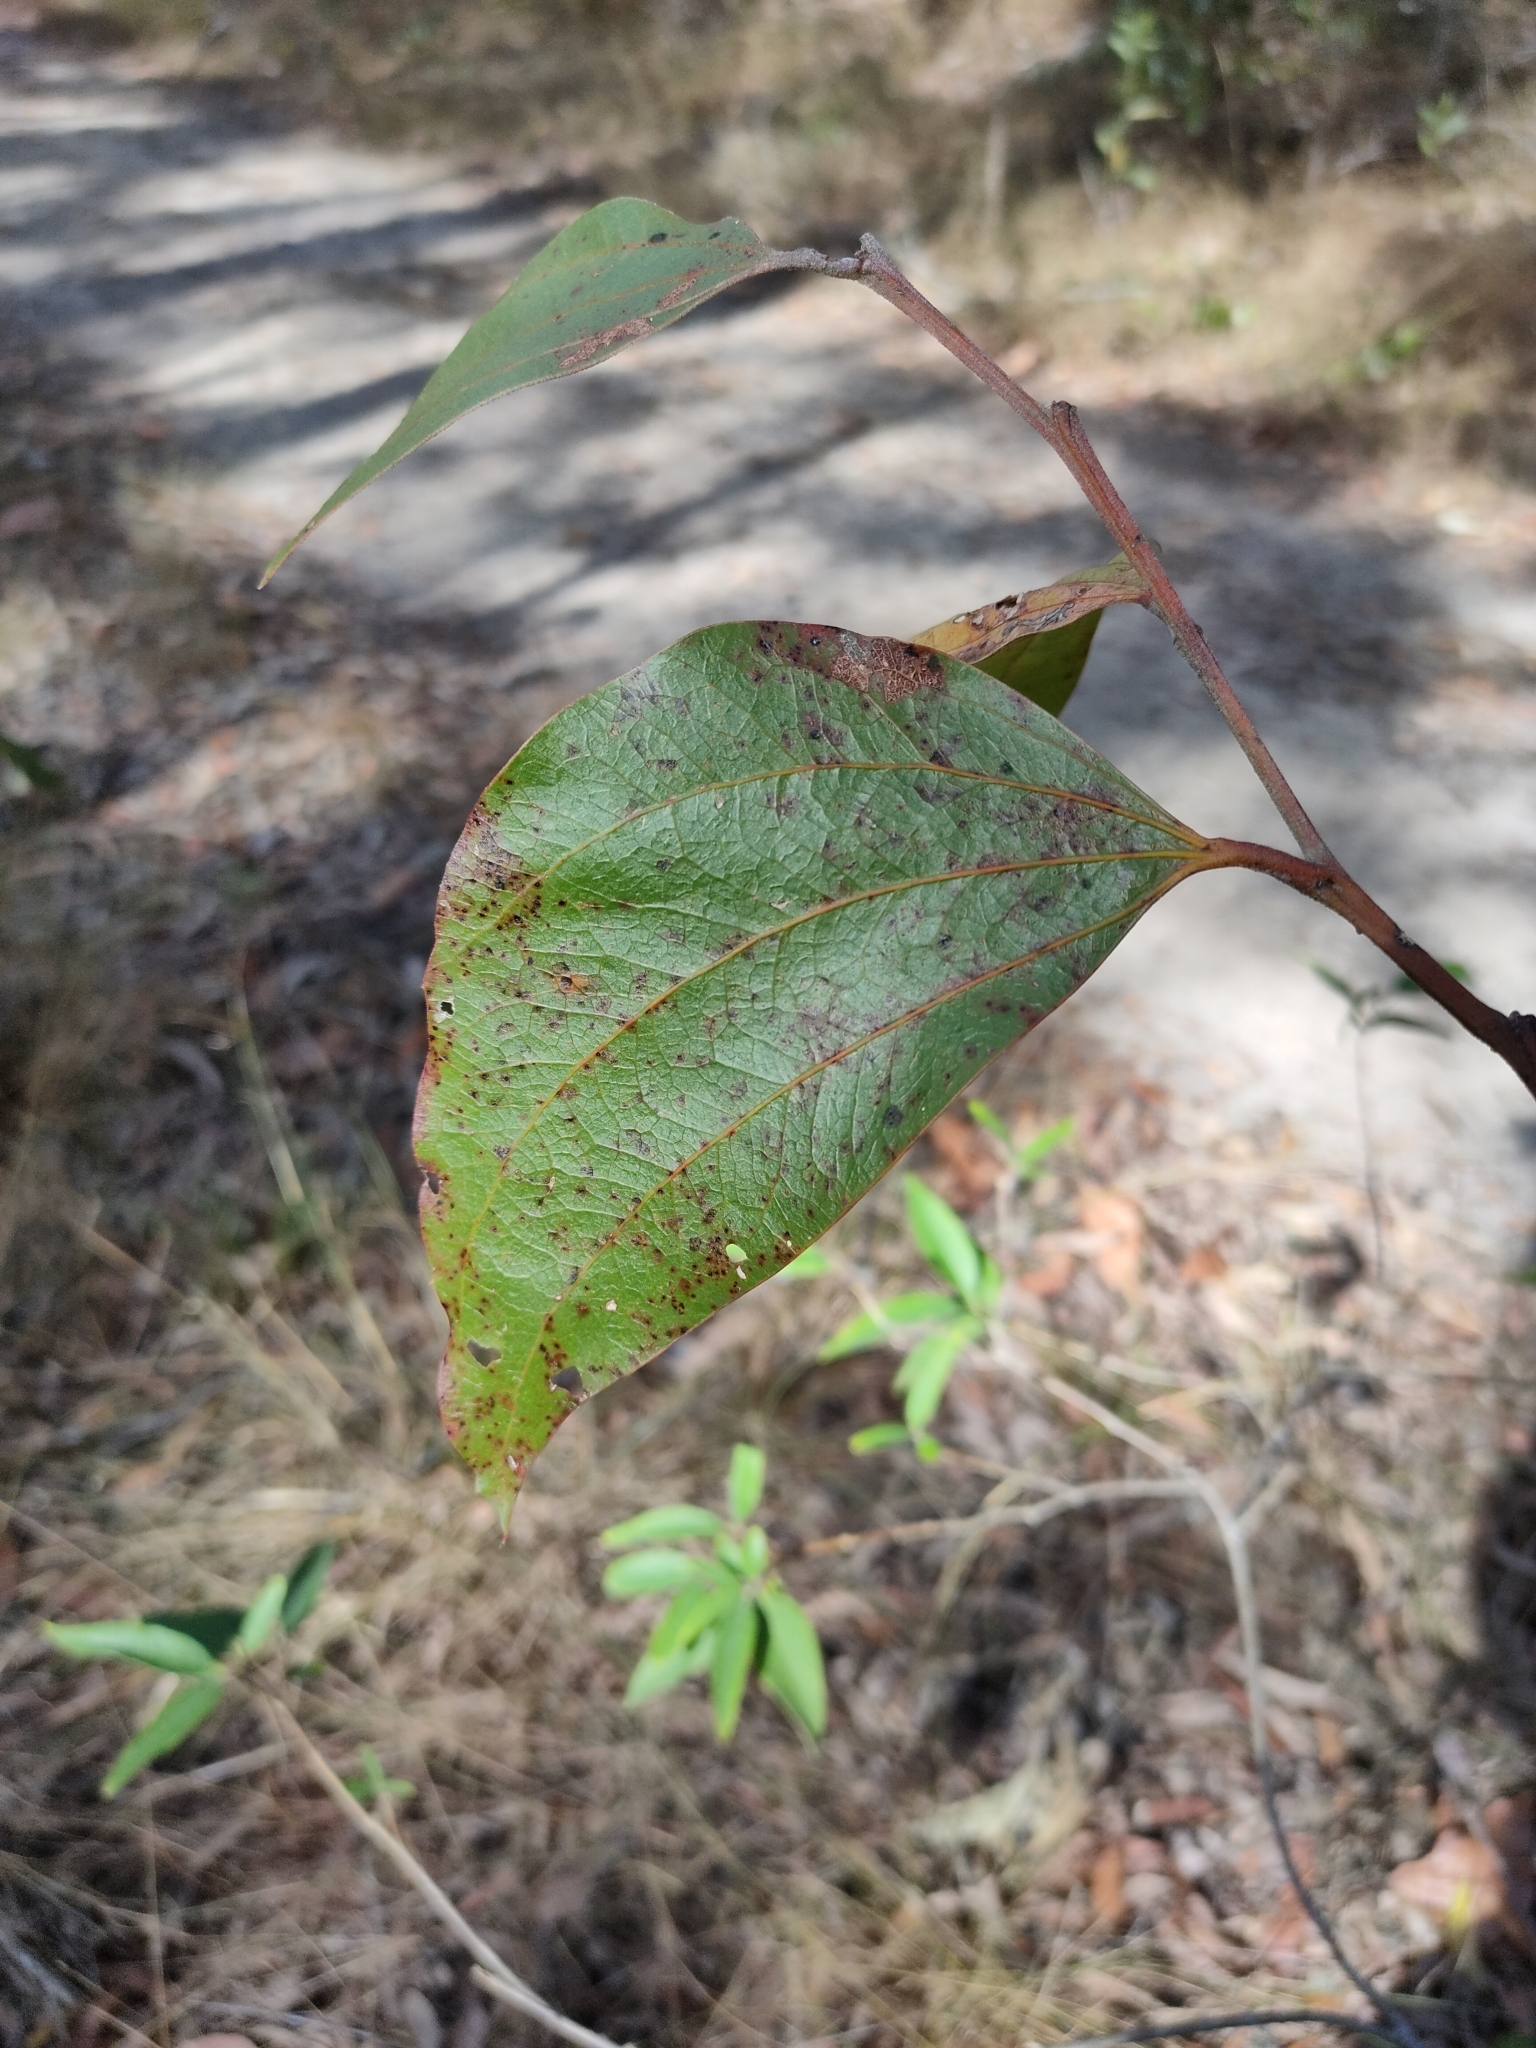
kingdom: Plantae
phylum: Tracheophyta
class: Magnoliopsida
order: Fabales
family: Fabaceae
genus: Acacia
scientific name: Acacia flavescens
